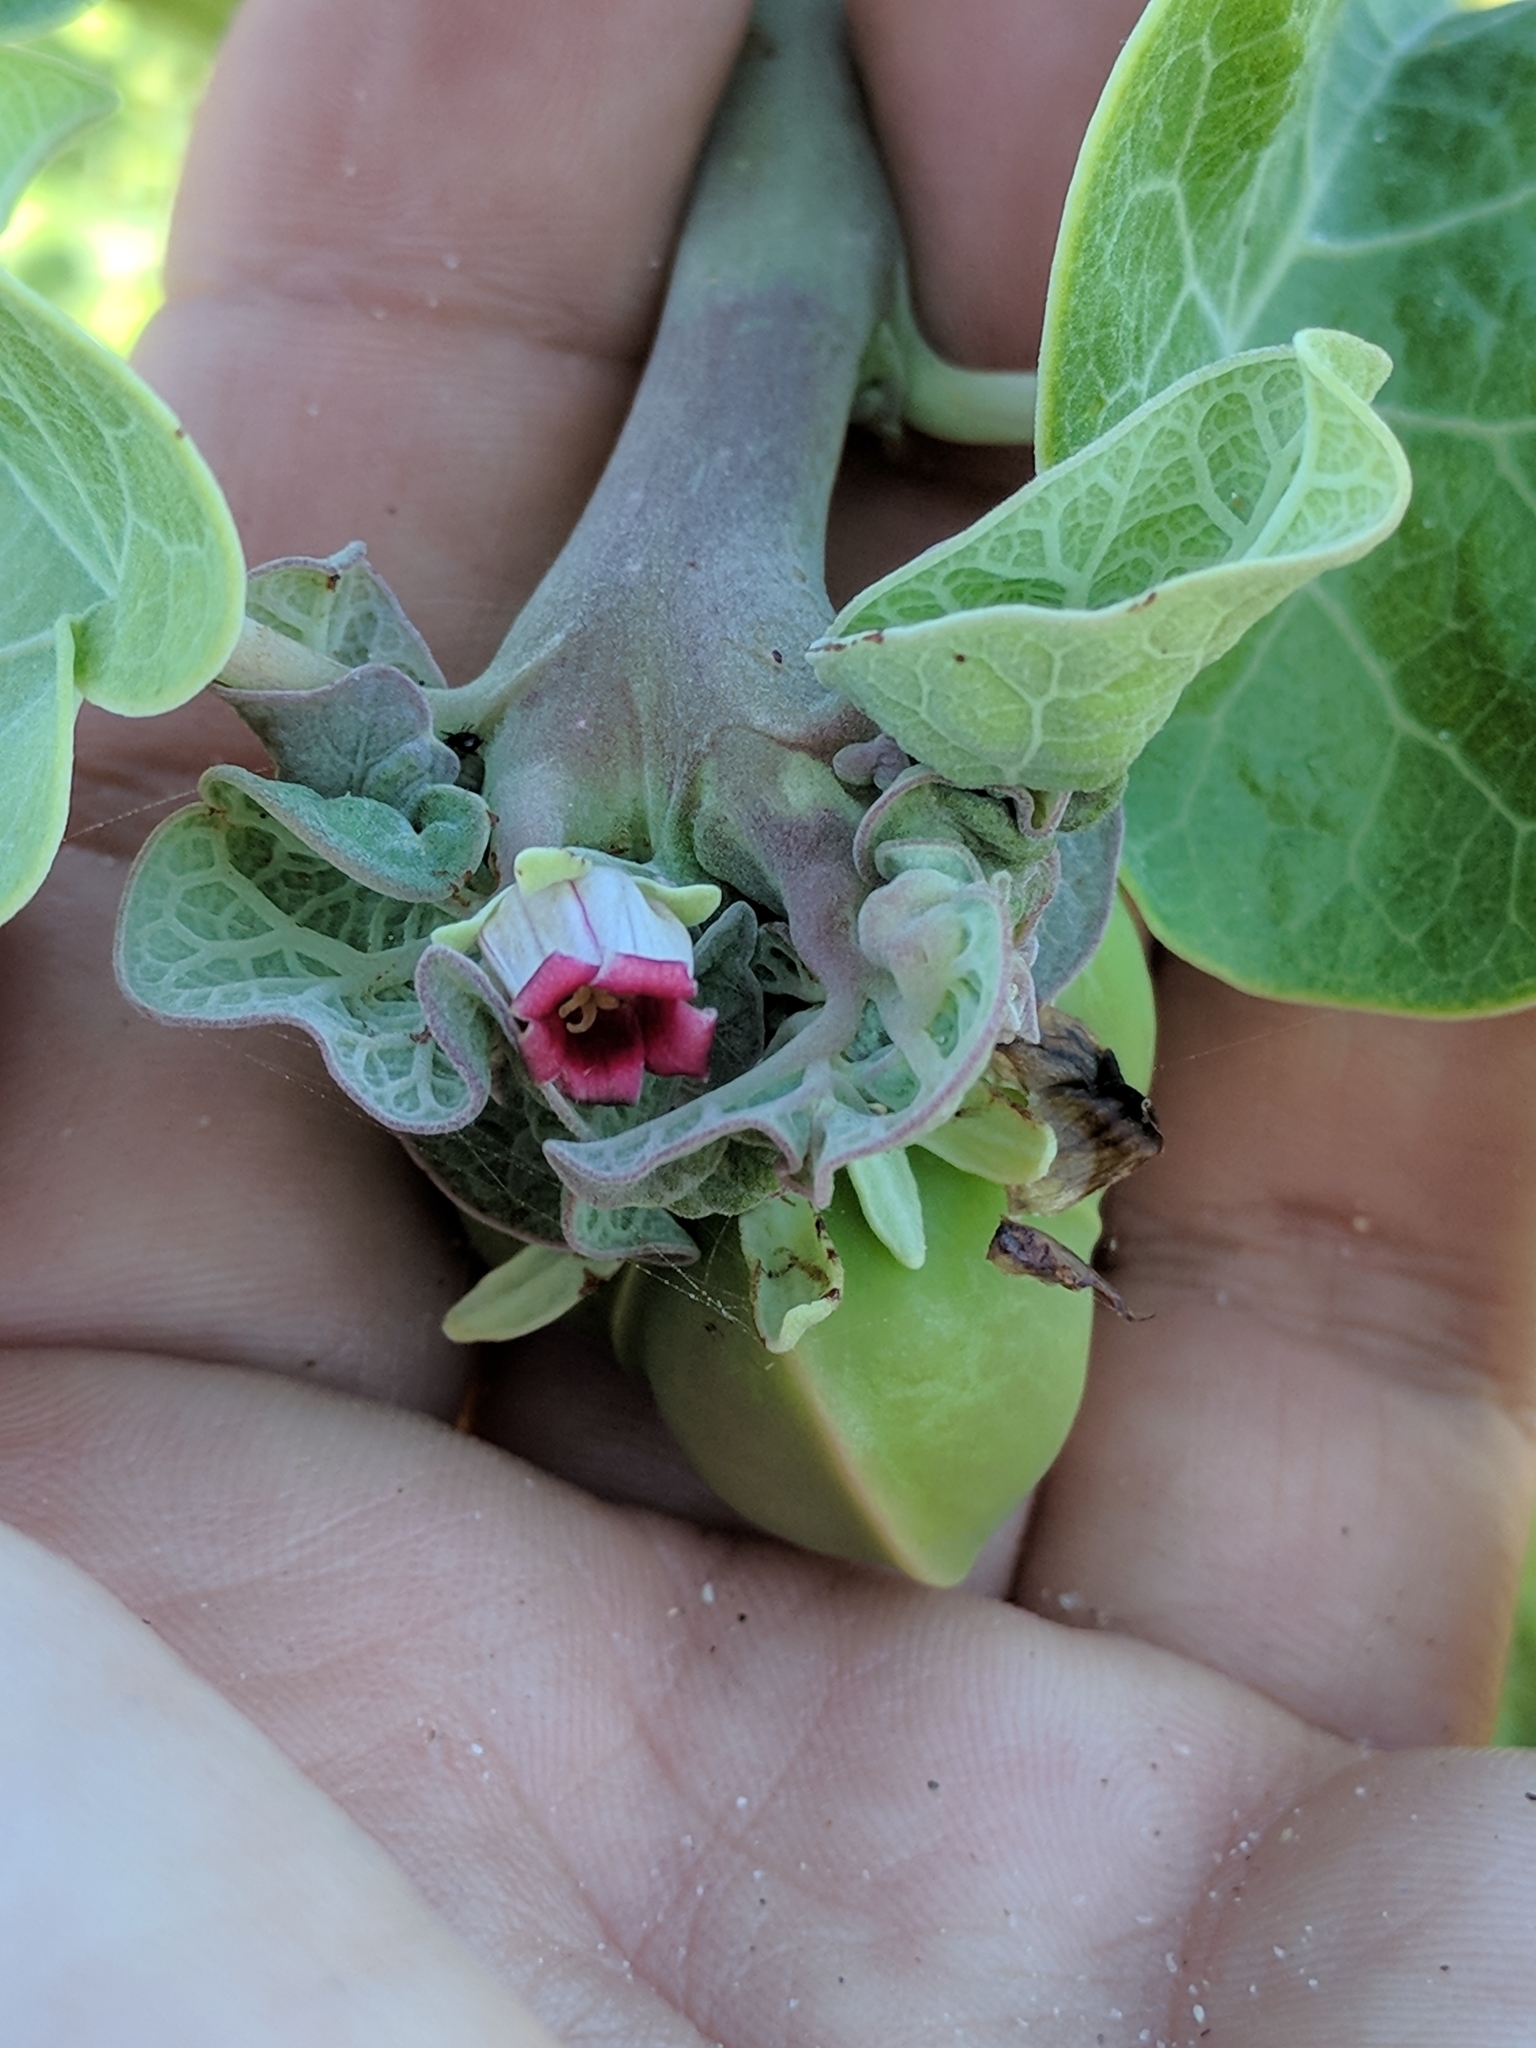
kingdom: Plantae
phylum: Tracheophyta
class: Magnoliopsida
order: Malpighiales
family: Euphorbiaceae
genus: Jatropha
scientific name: Jatropha cinerea
